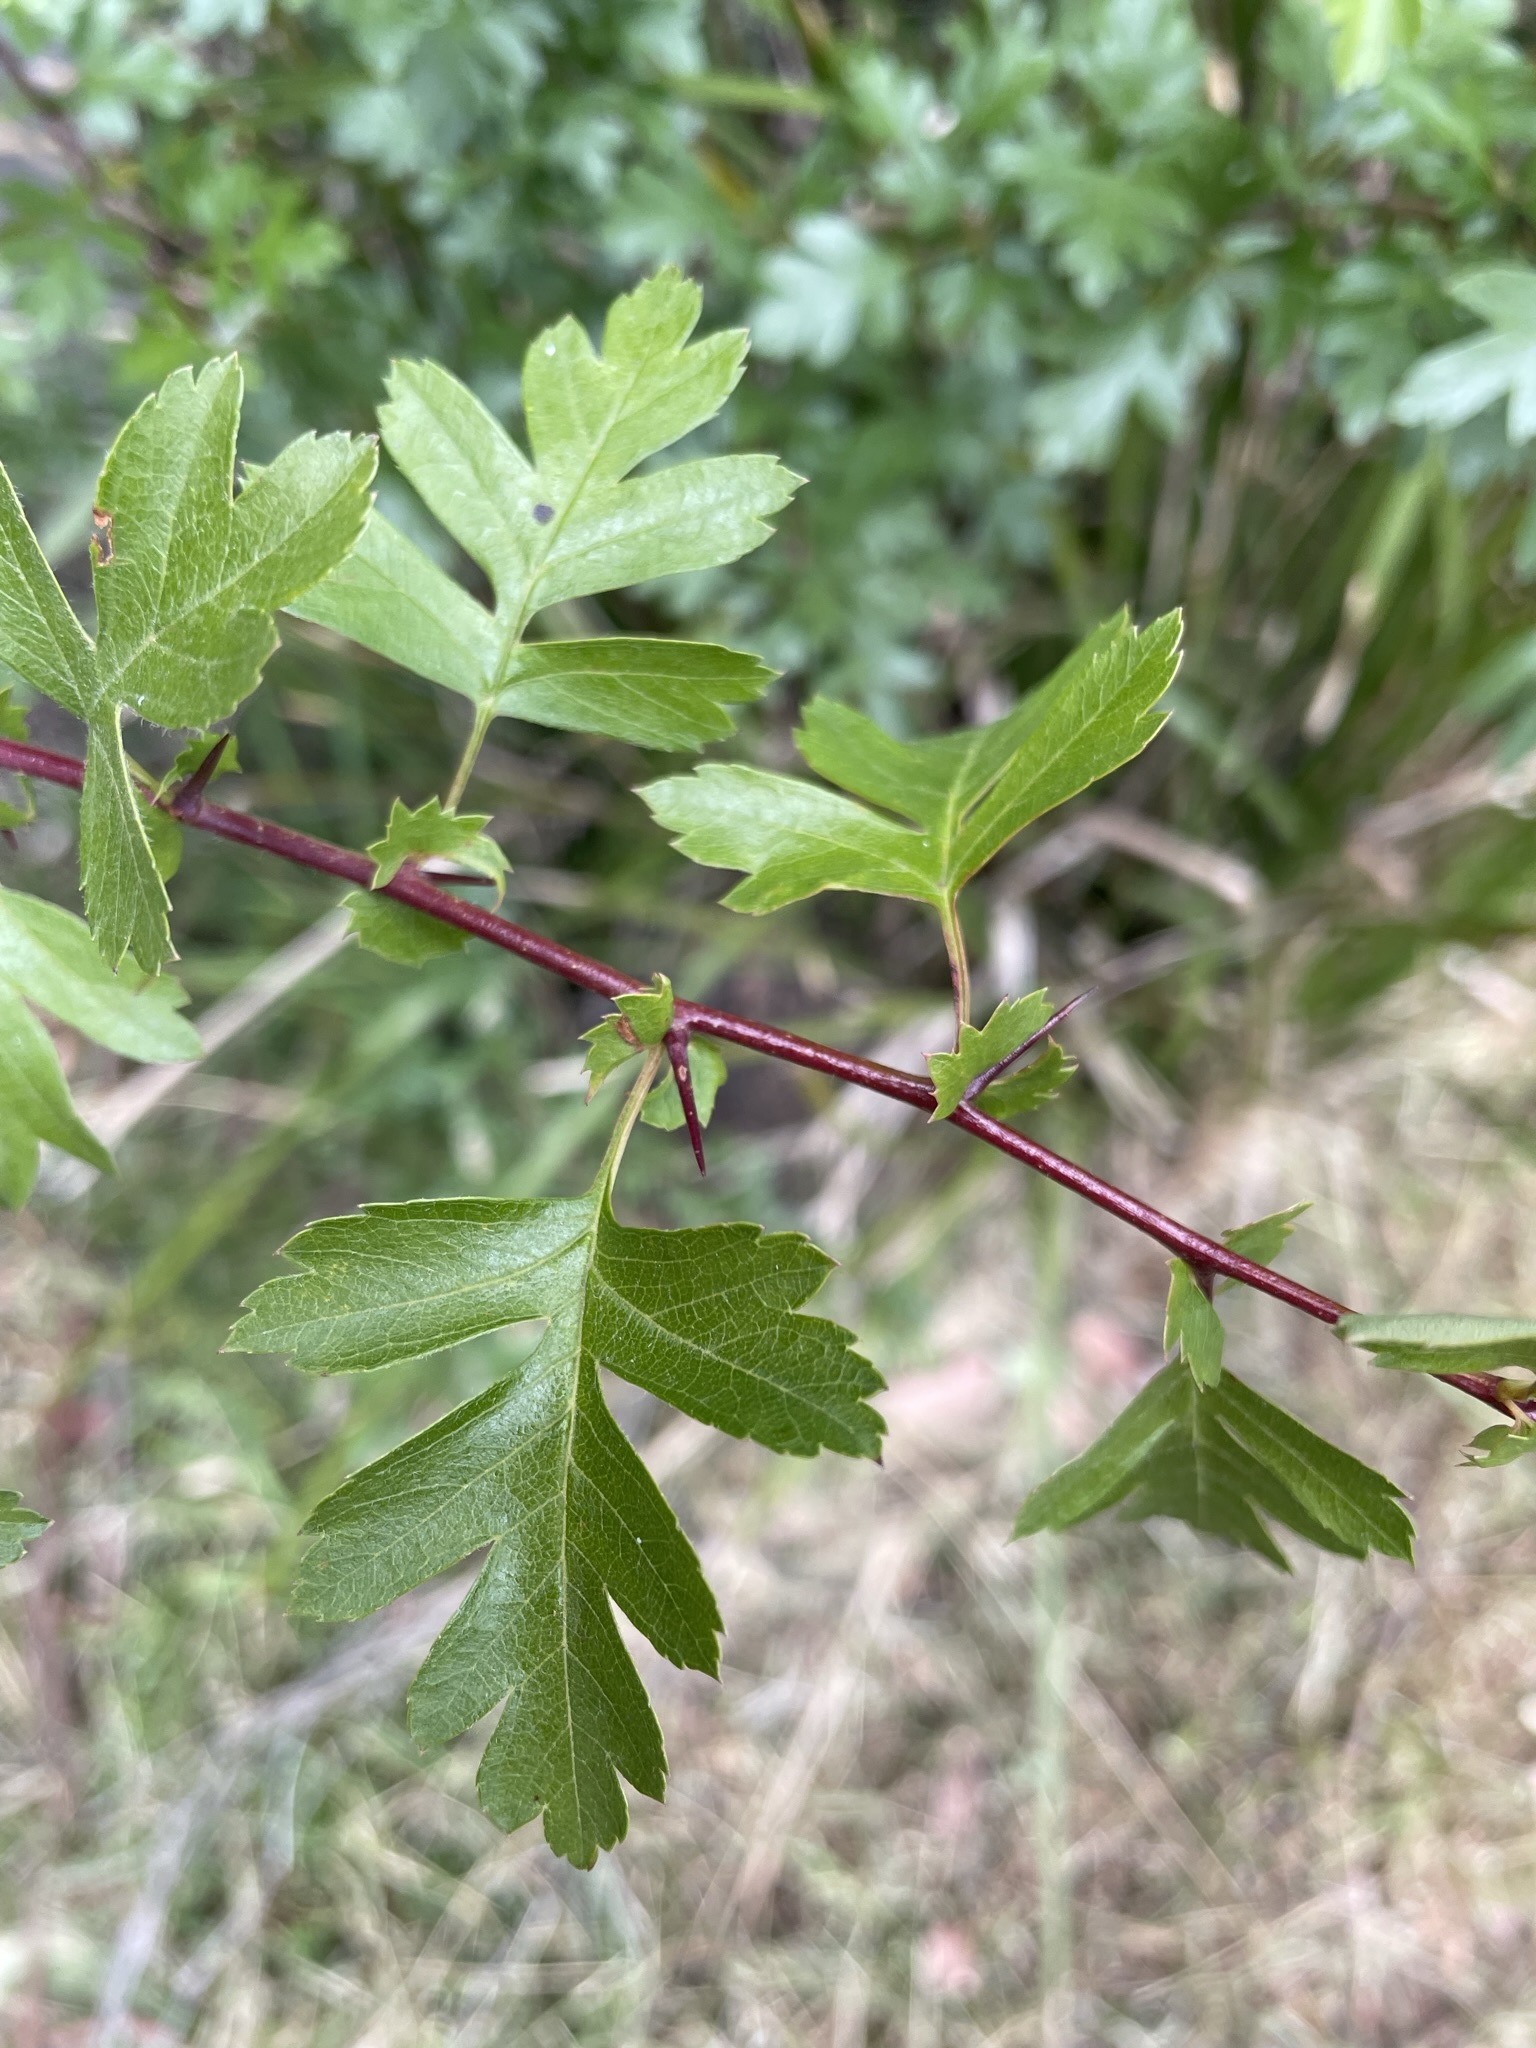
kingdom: Plantae
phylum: Tracheophyta
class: Magnoliopsida
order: Rosales
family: Rosaceae
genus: Crataegus
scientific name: Crataegus monogyna
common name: Hawthorn
